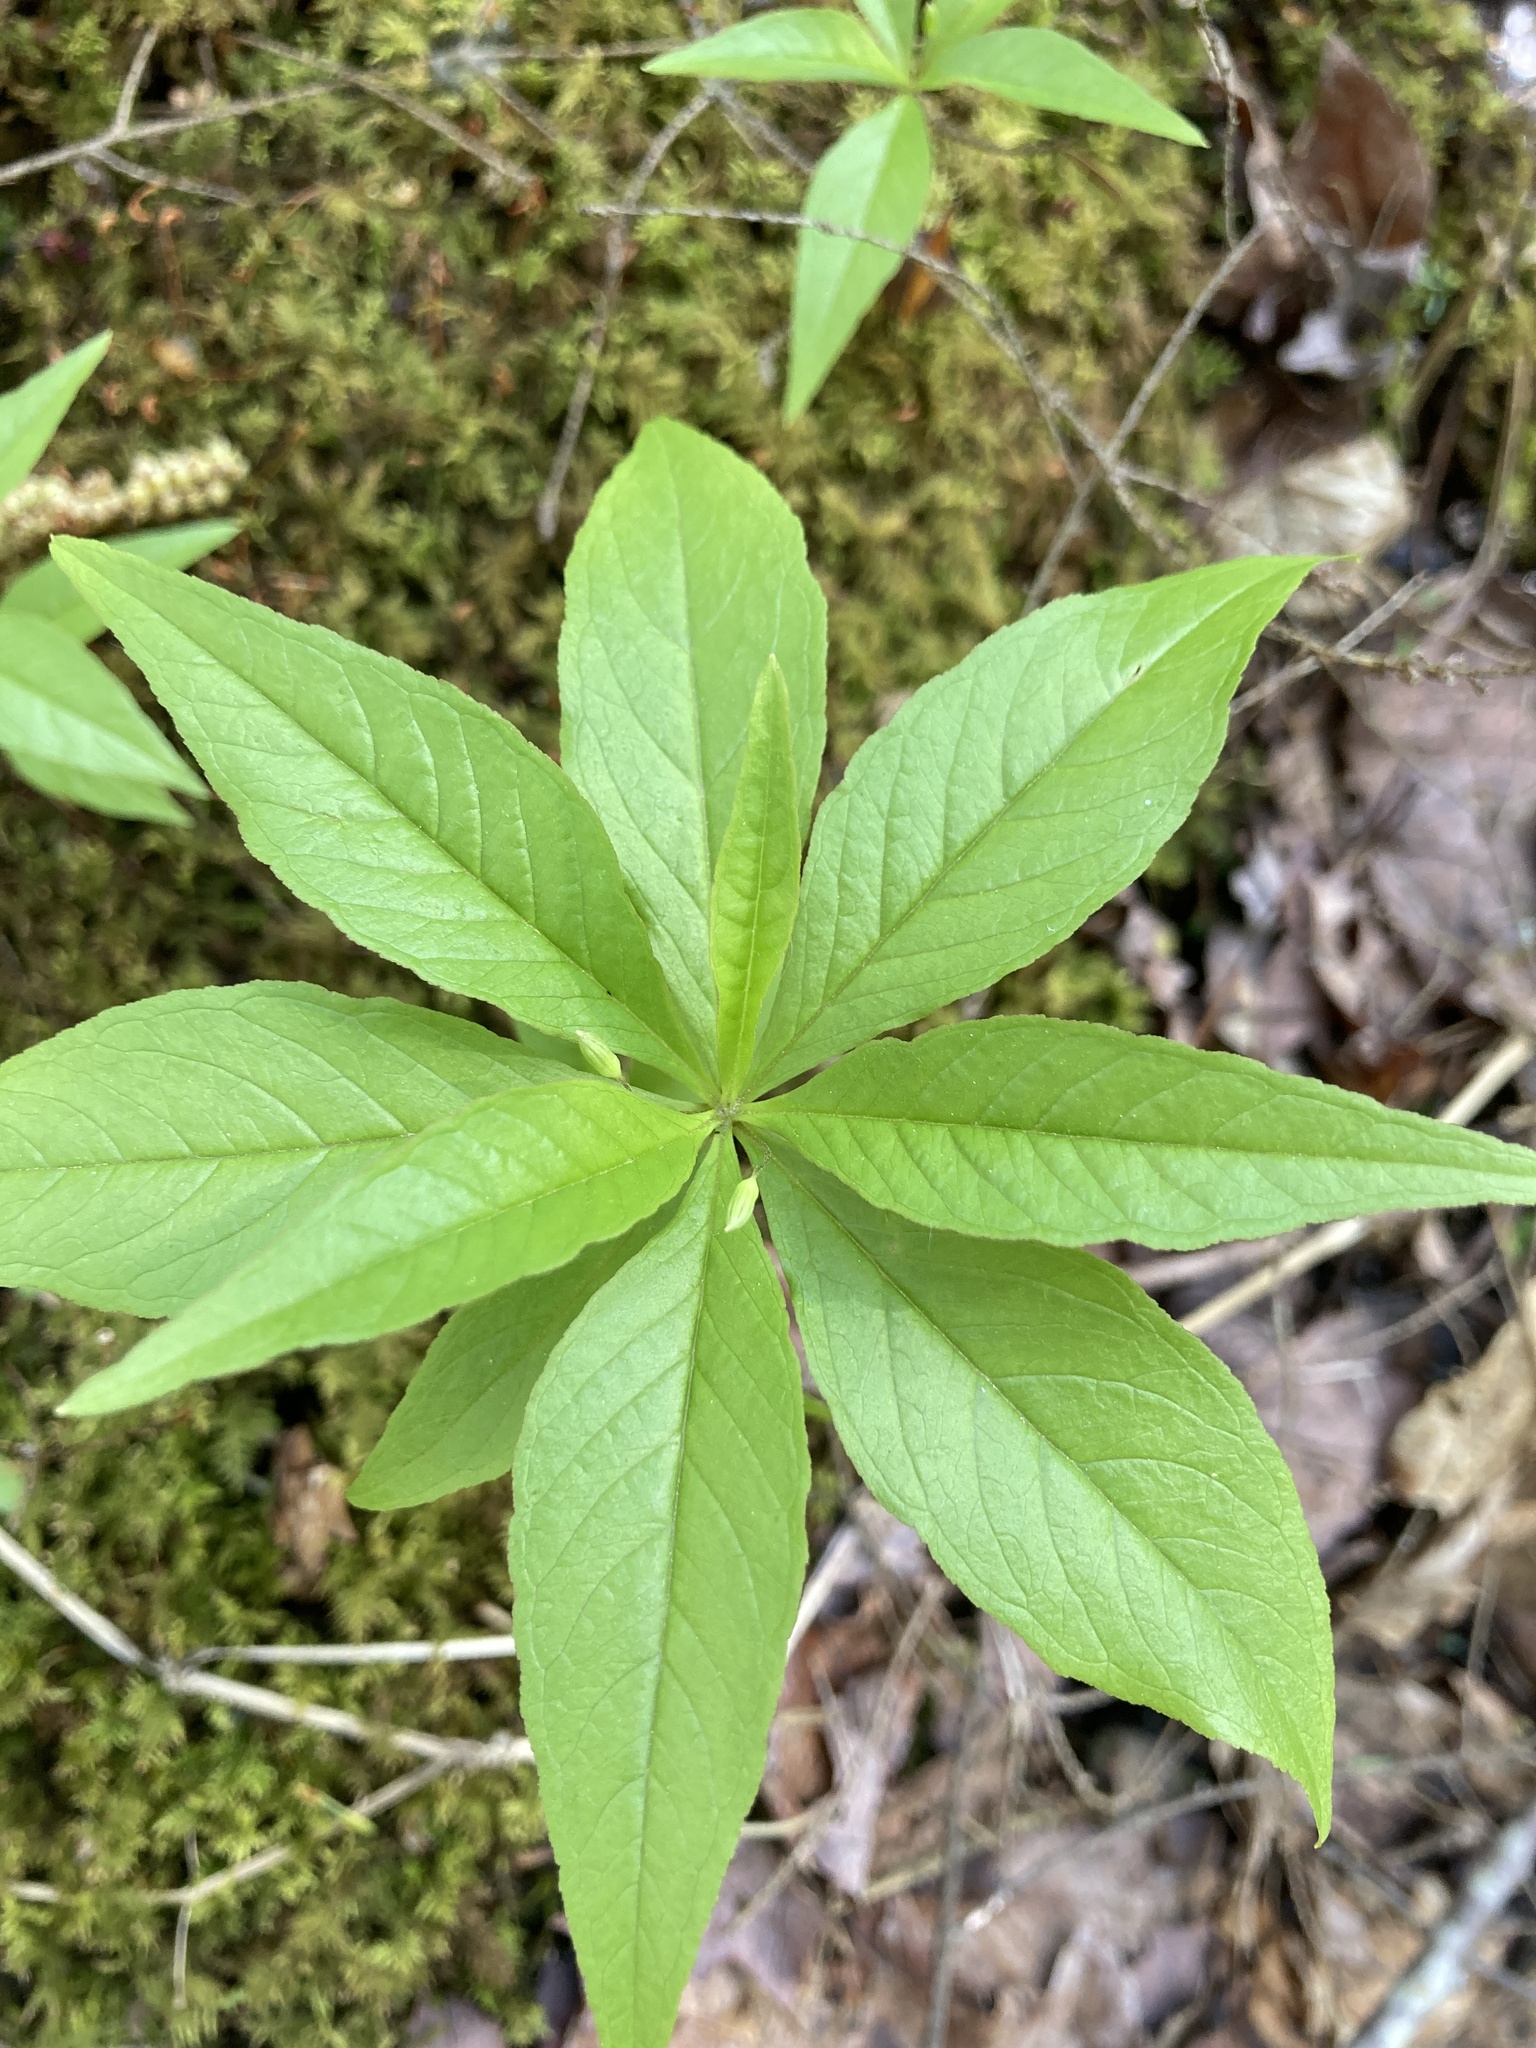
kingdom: Plantae
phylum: Tracheophyta
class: Magnoliopsida
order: Ericales
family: Primulaceae
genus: Lysimachia
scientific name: Lysimachia borealis
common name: American starflower
